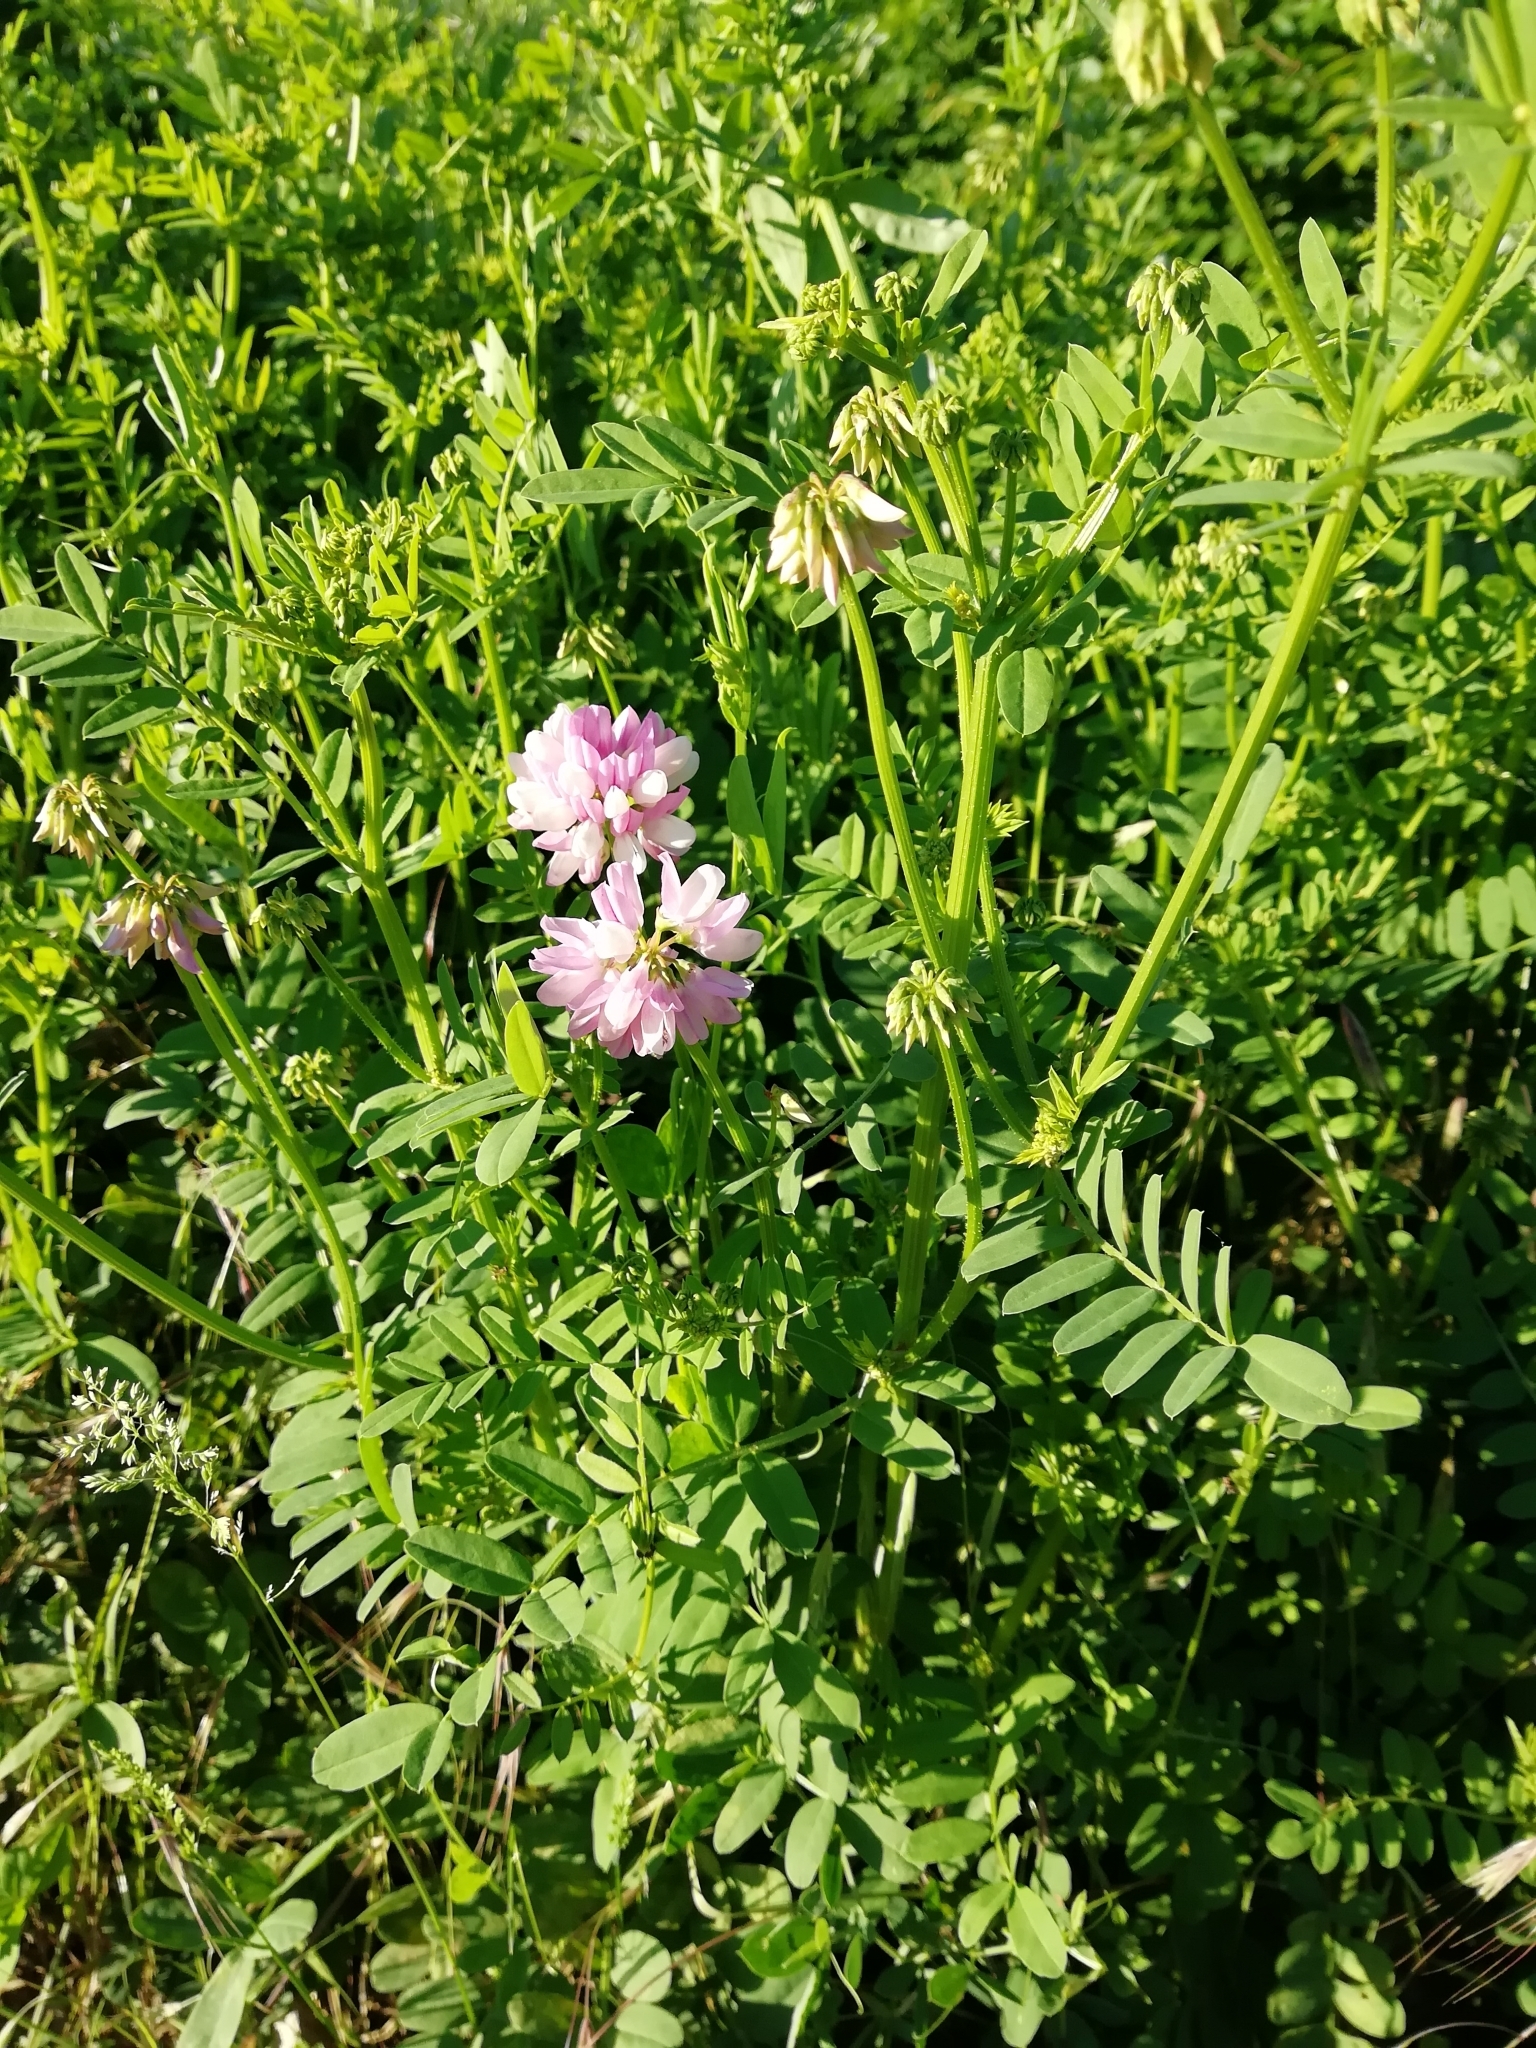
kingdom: Plantae
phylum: Tracheophyta
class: Magnoliopsida
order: Fabales
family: Fabaceae
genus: Coronilla
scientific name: Coronilla varia
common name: Crownvetch
